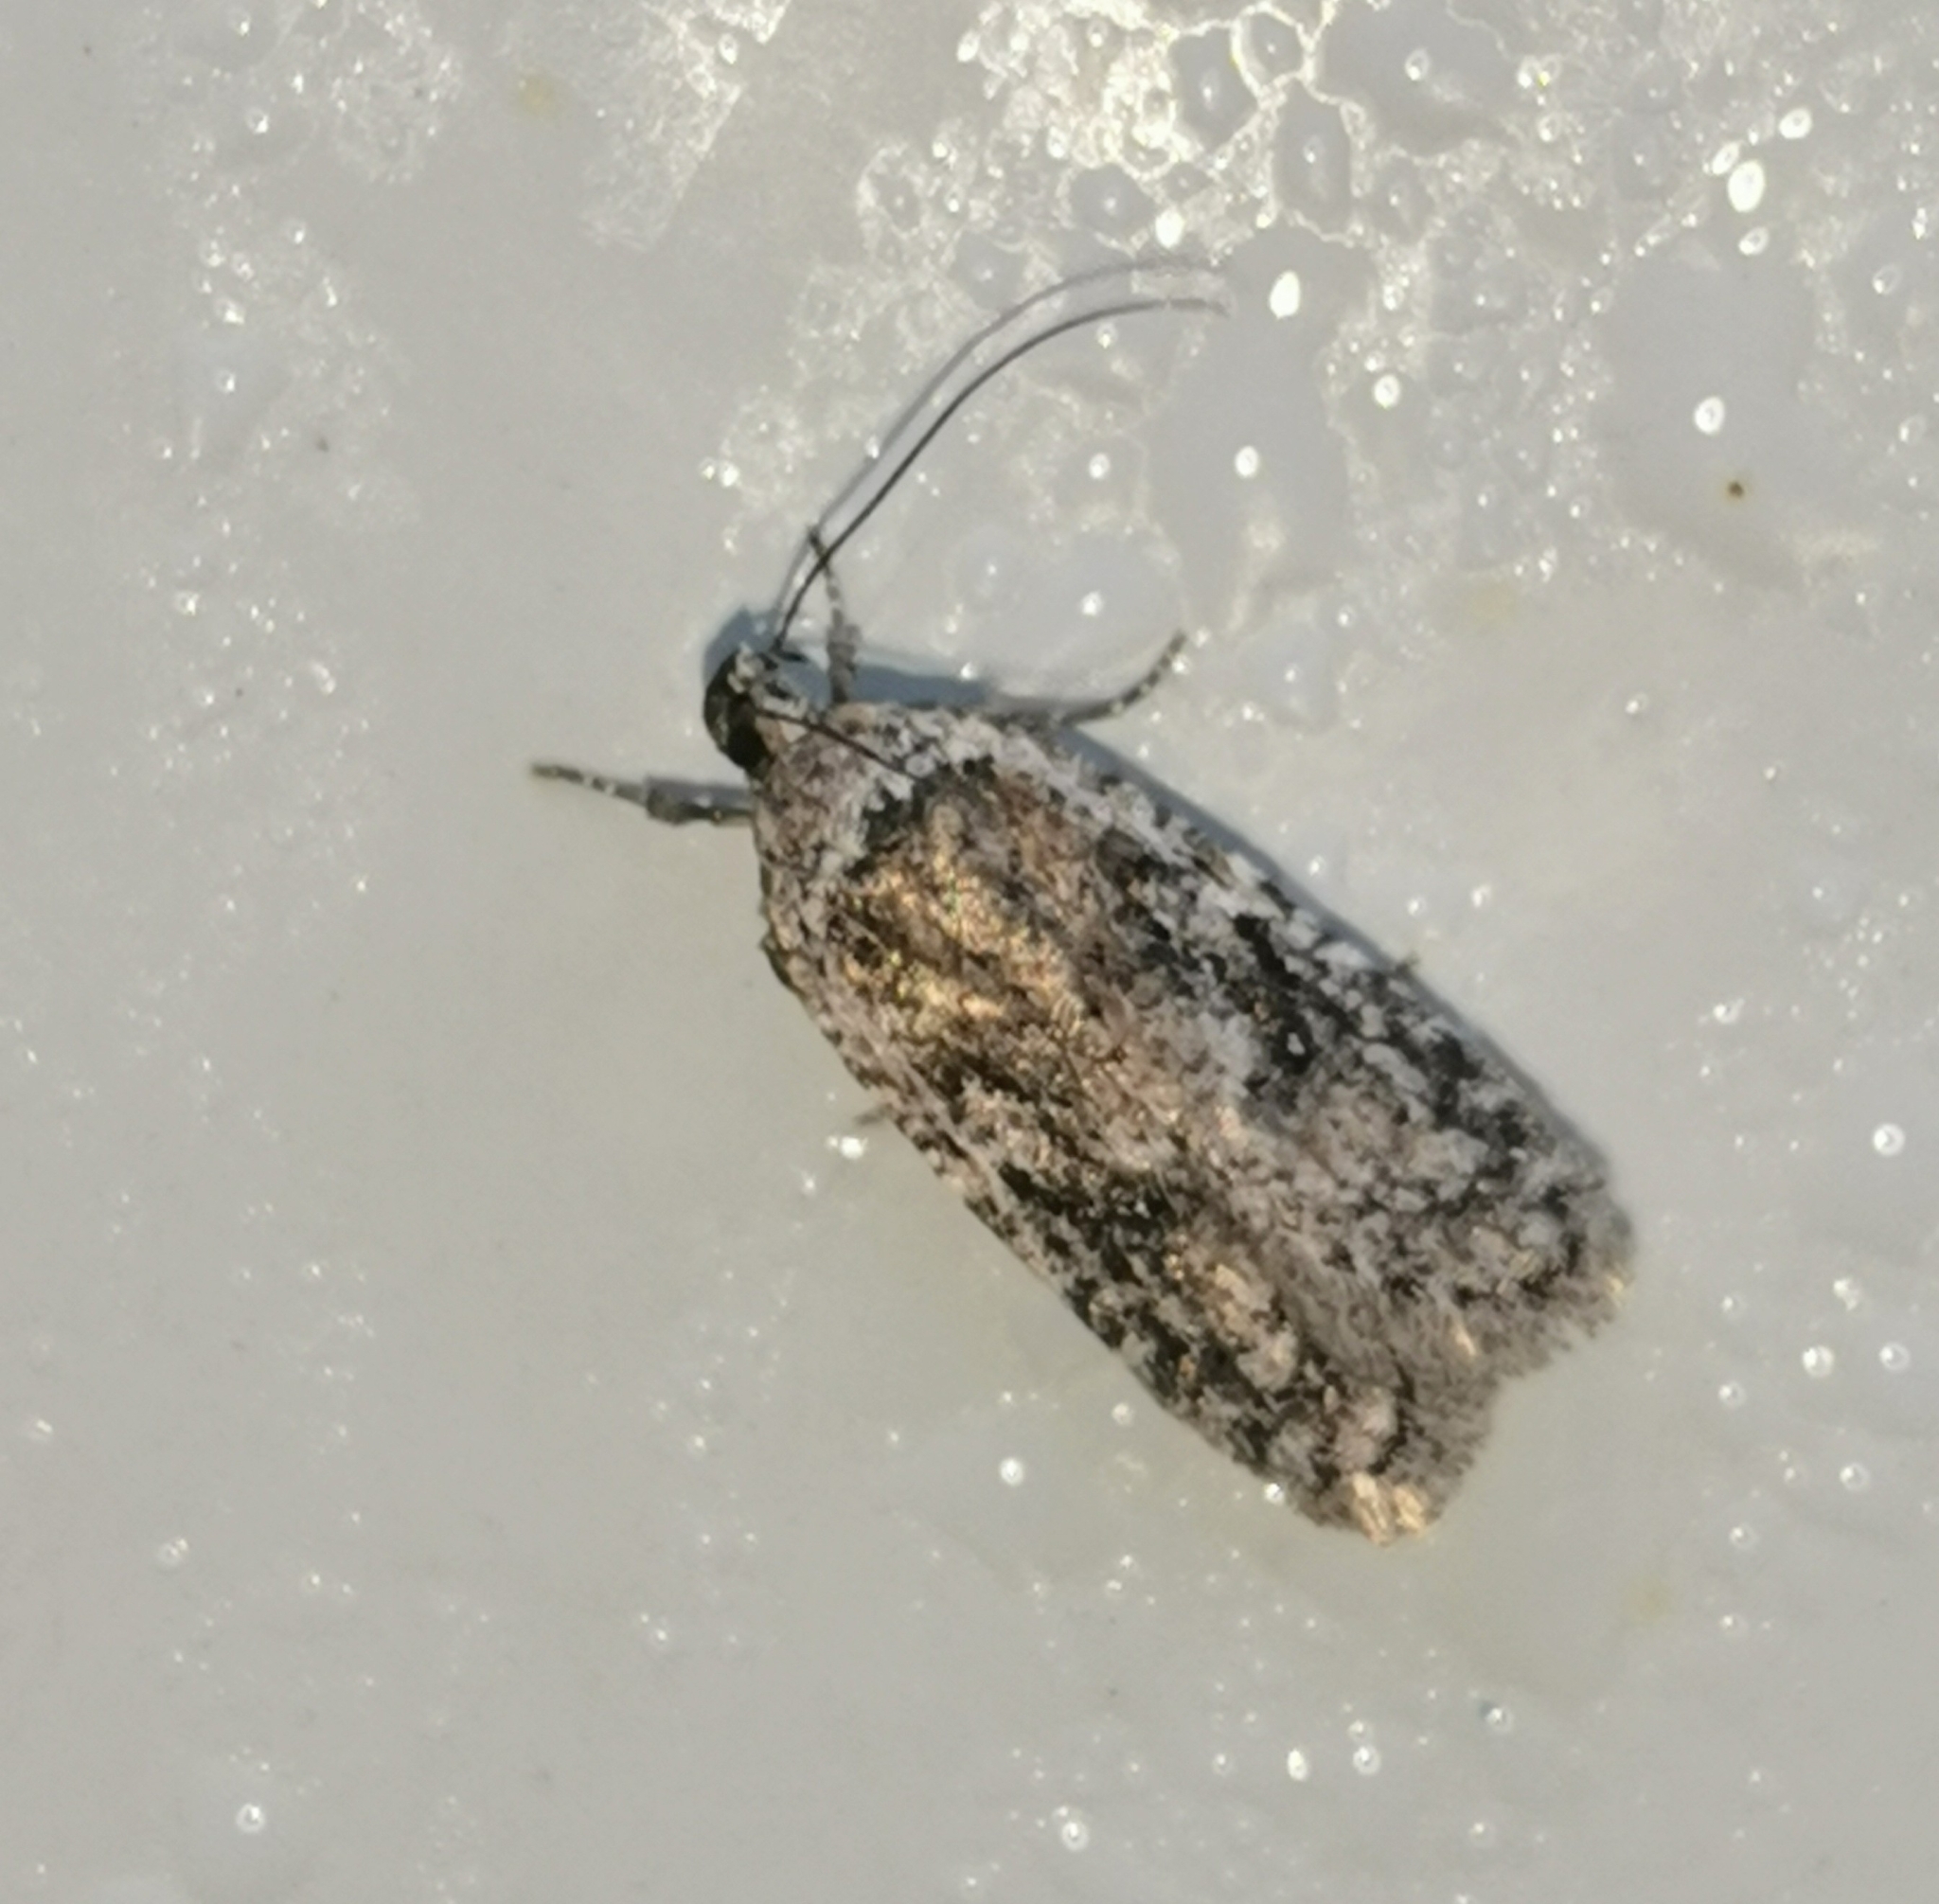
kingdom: Animalia
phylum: Arthropoda
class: Insecta
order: Lepidoptera
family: Depressariidae
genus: Exaeretia
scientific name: Exaeretia ciniflonella
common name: Scotch flat-body
